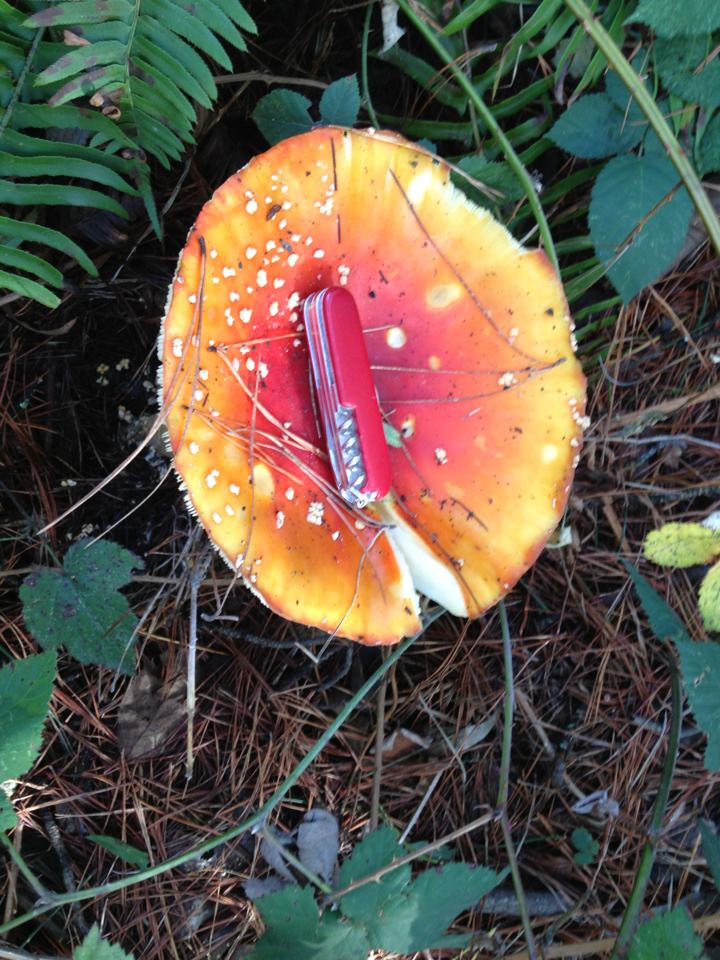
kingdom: Fungi
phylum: Basidiomycota
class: Agaricomycetes
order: Agaricales
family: Amanitaceae
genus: Amanita
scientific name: Amanita muscaria
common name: Fly agaric
